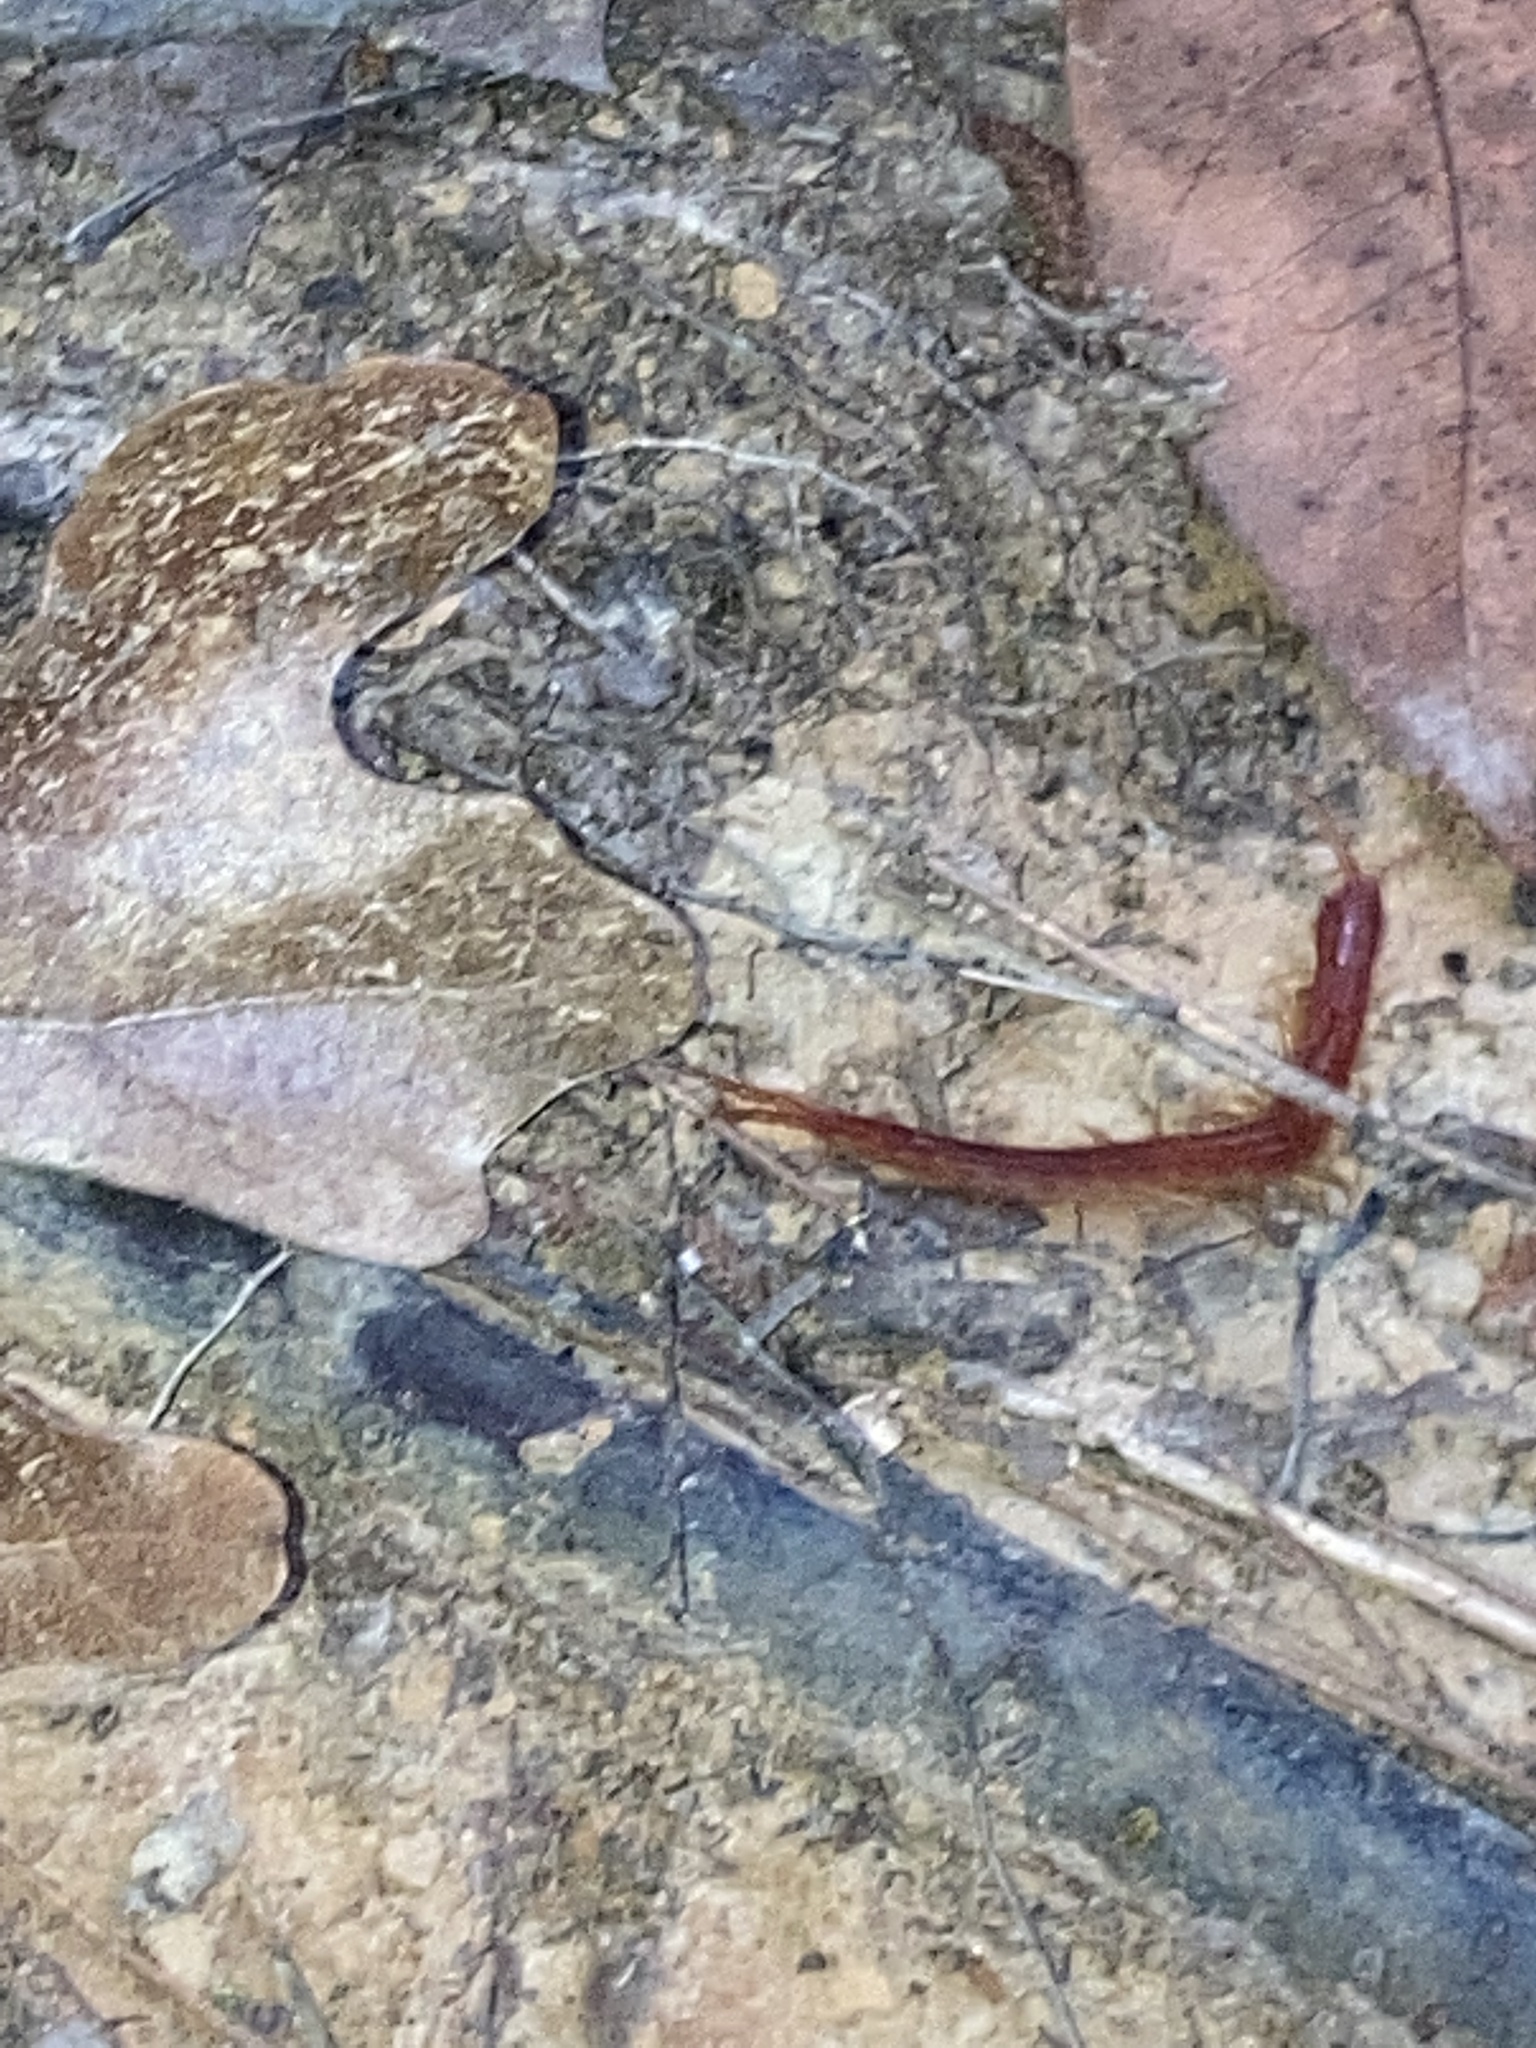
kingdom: Animalia
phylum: Arthropoda
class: Chilopoda
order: Scolopendromorpha
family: Scolopocryptopidae
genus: Scolopocryptops
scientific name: Scolopocryptops sexspinosus
